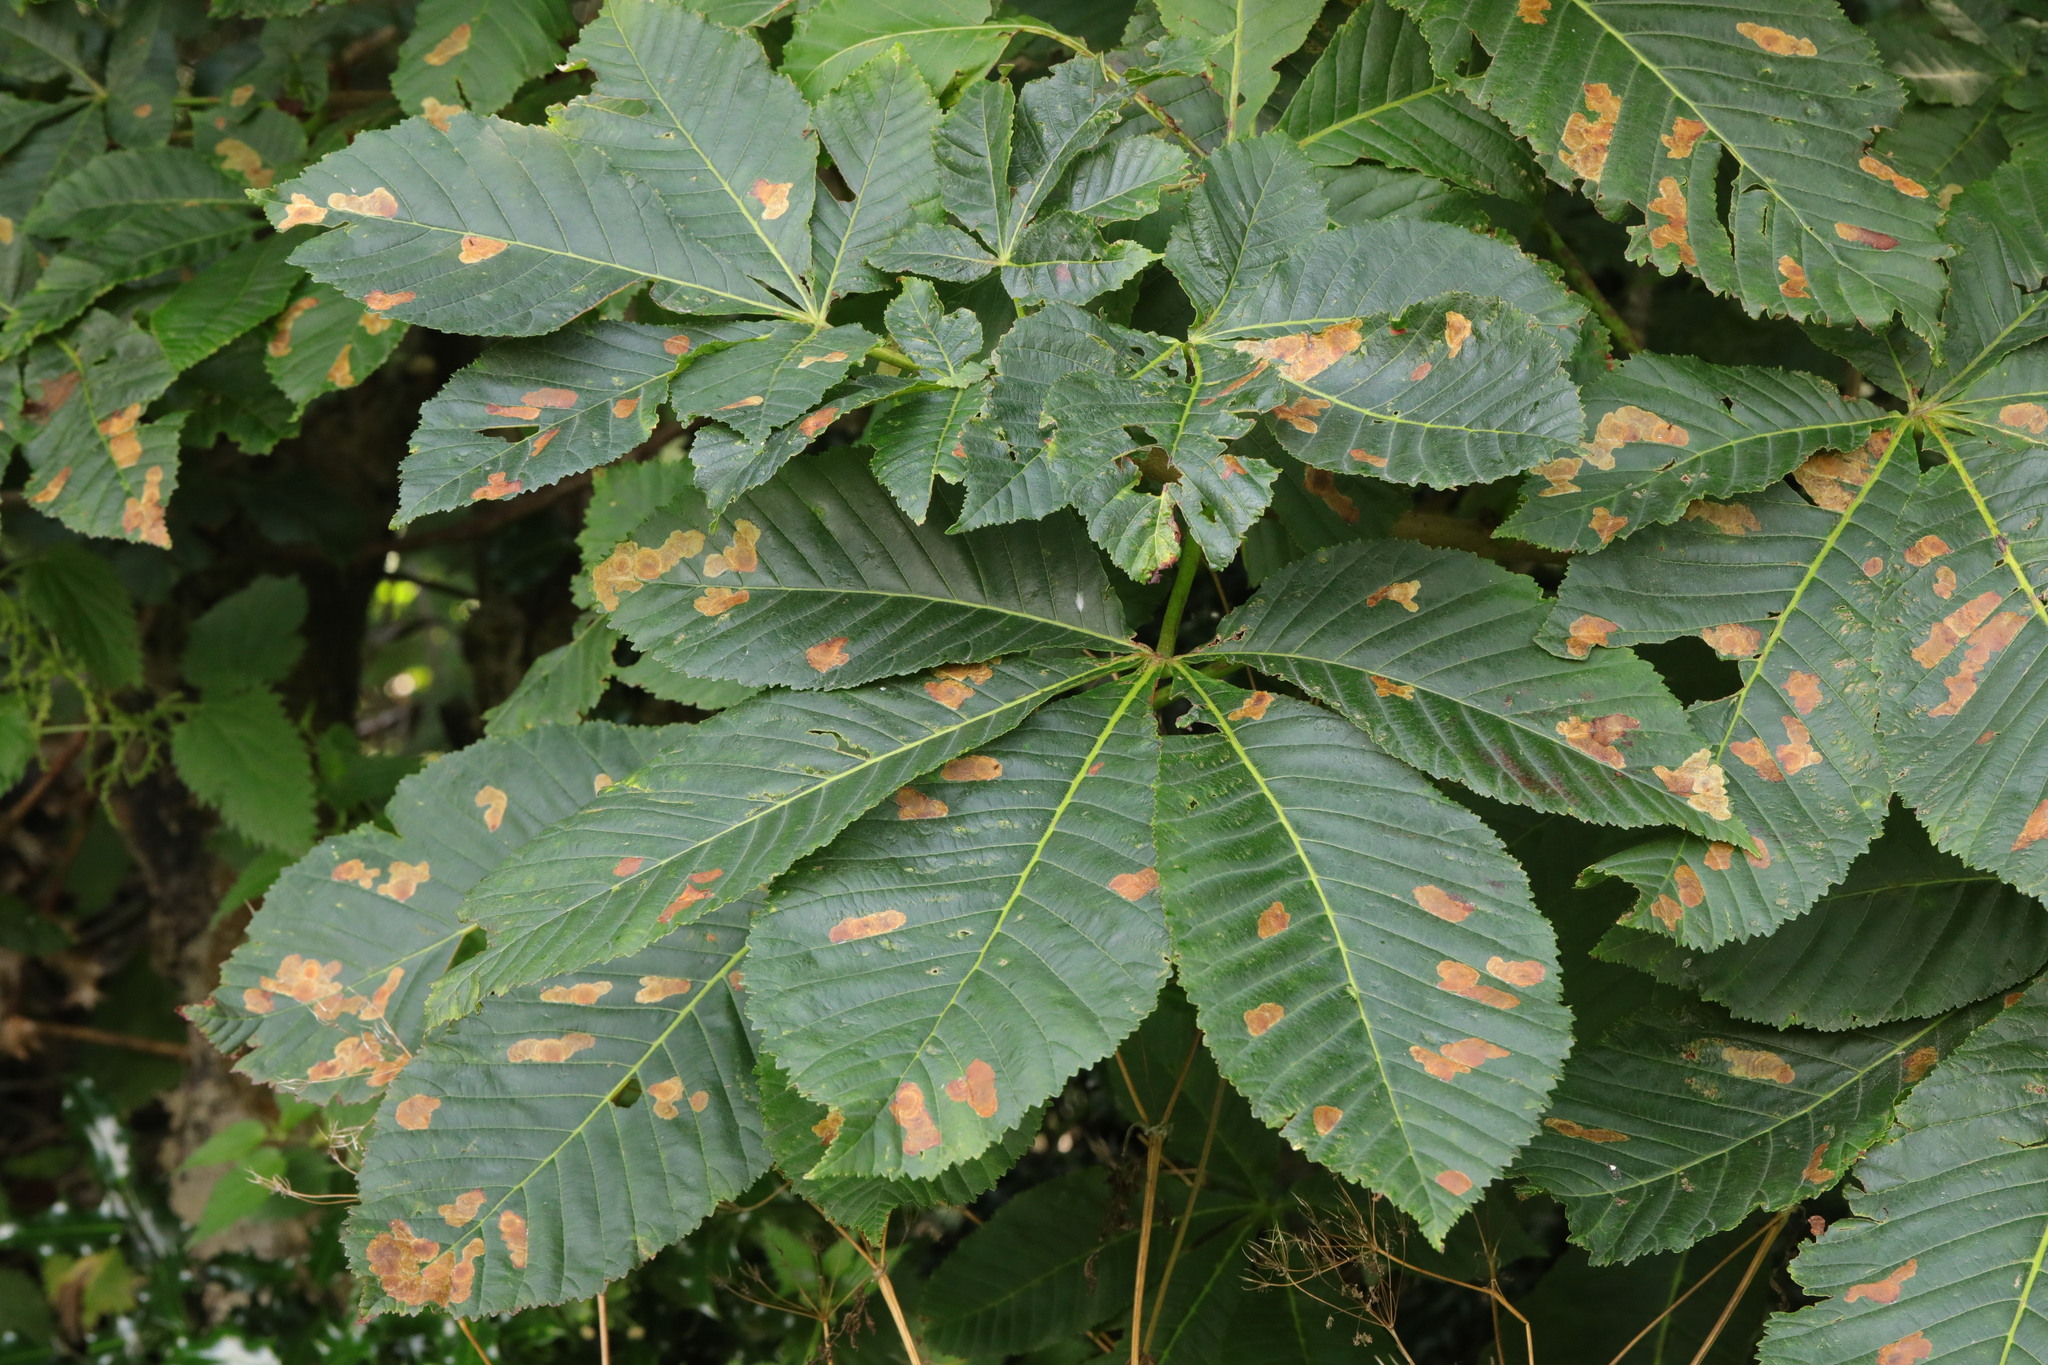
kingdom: Plantae
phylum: Tracheophyta
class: Magnoliopsida
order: Sapindales
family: Sapindaceae
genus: Aesculus
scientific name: Aesculus hippocastanum
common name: Horse-chestnut
